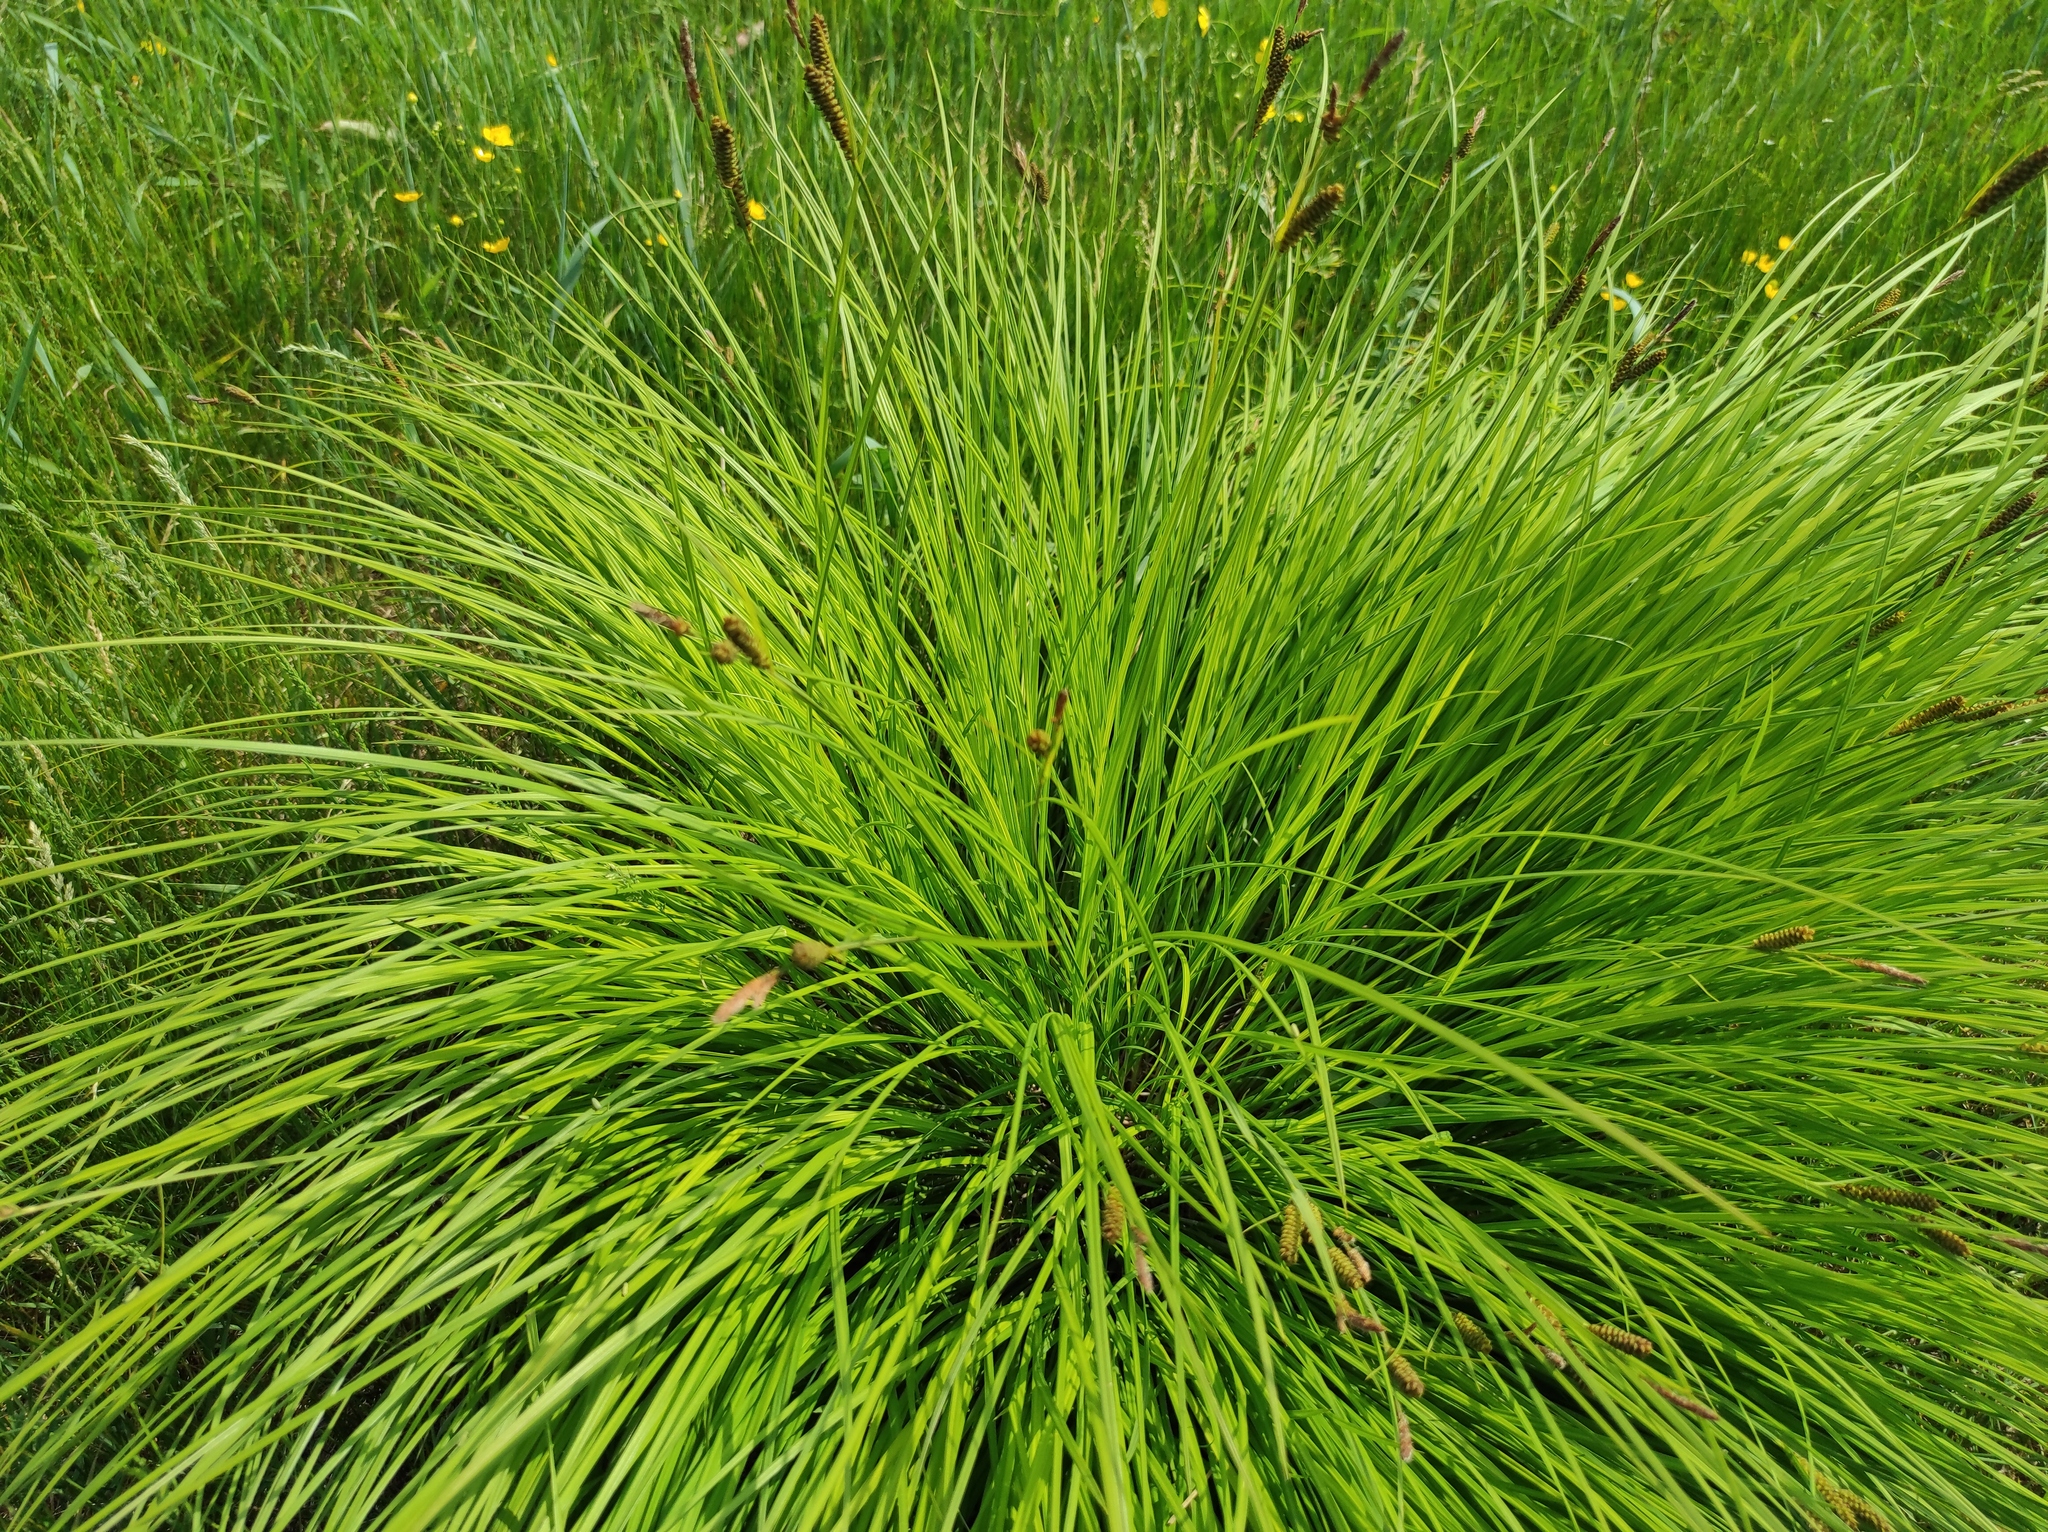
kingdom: Plantae
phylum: Tracheophyta
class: Liliopsida
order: Poales
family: Cyperaceae
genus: Carex
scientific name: Carex cespitosa
